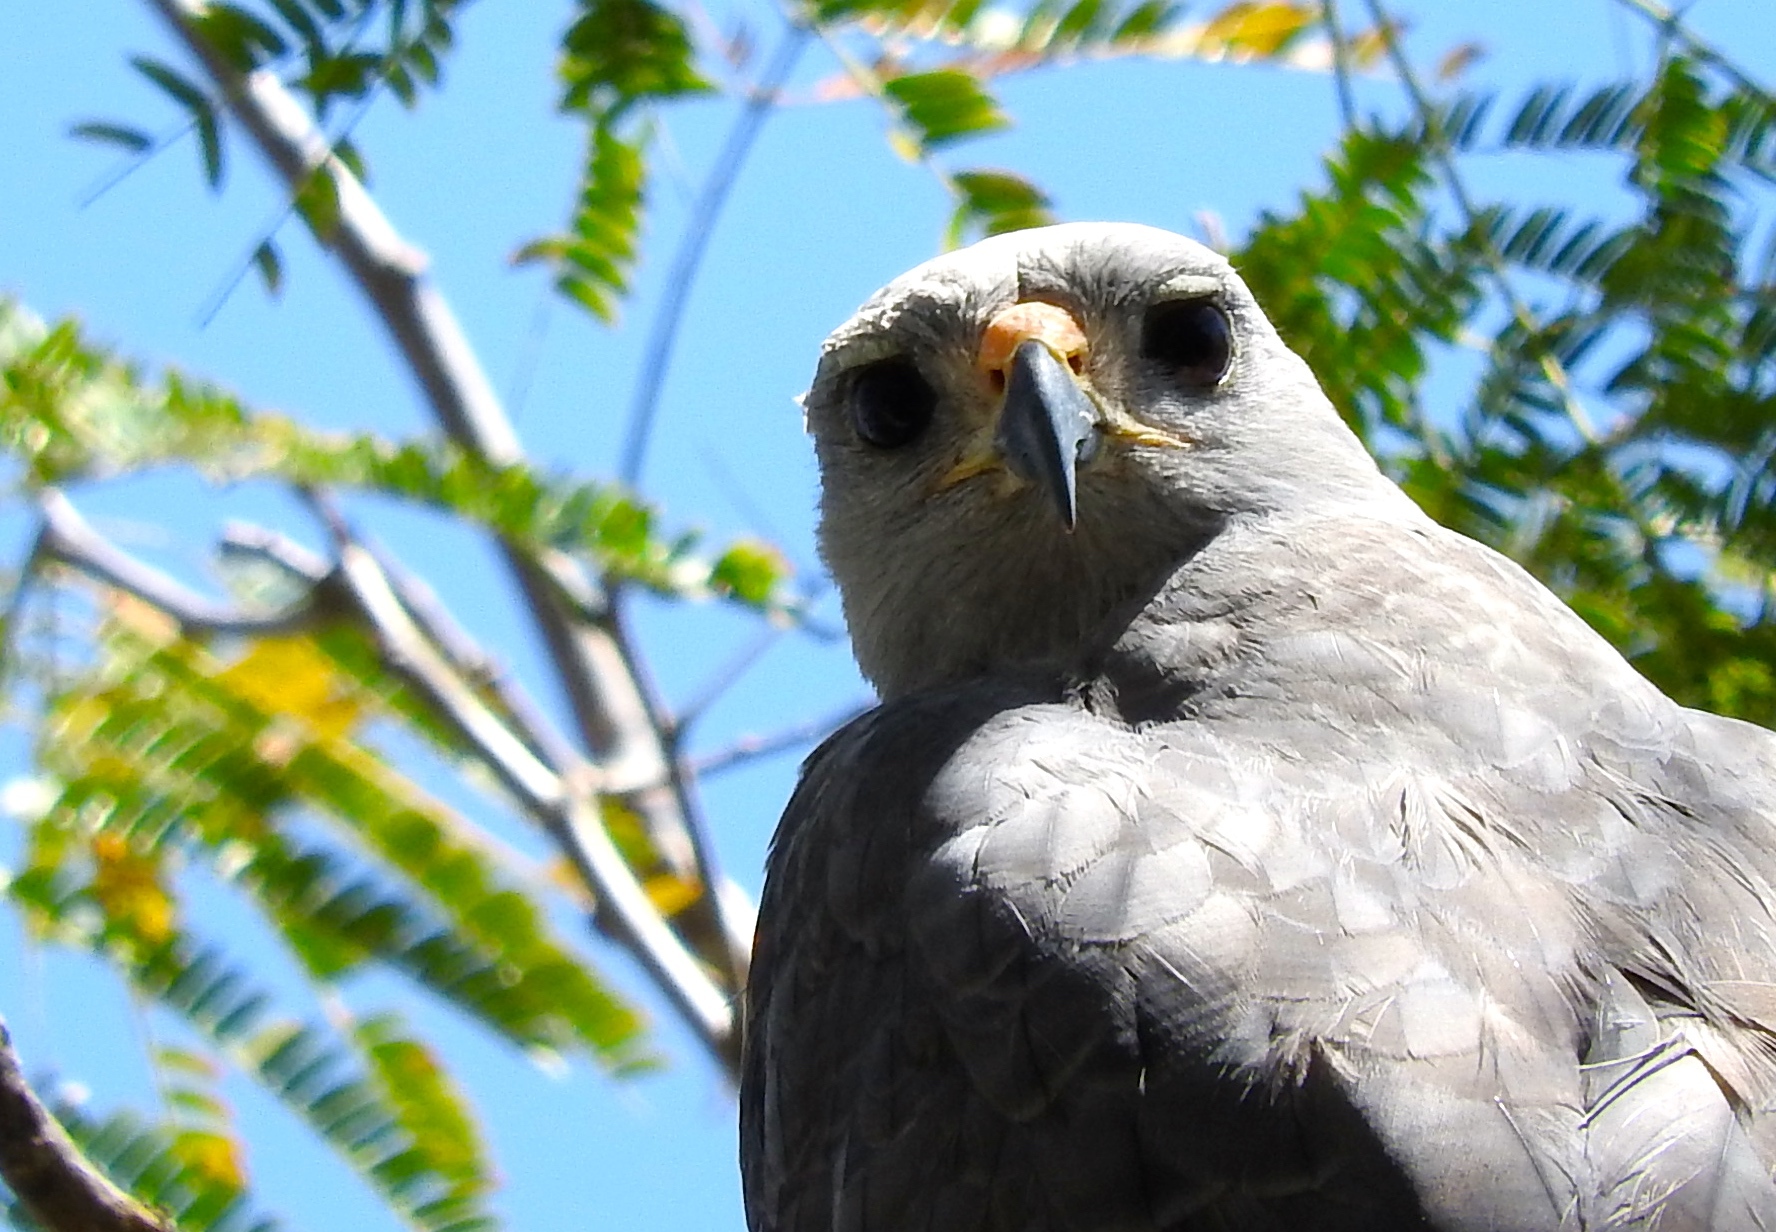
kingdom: Animalia
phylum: Chordata
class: Aves
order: Accipitriformes
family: Accipitridae
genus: Buteo
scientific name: Buteo nitidus
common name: Grey-lined hawk
